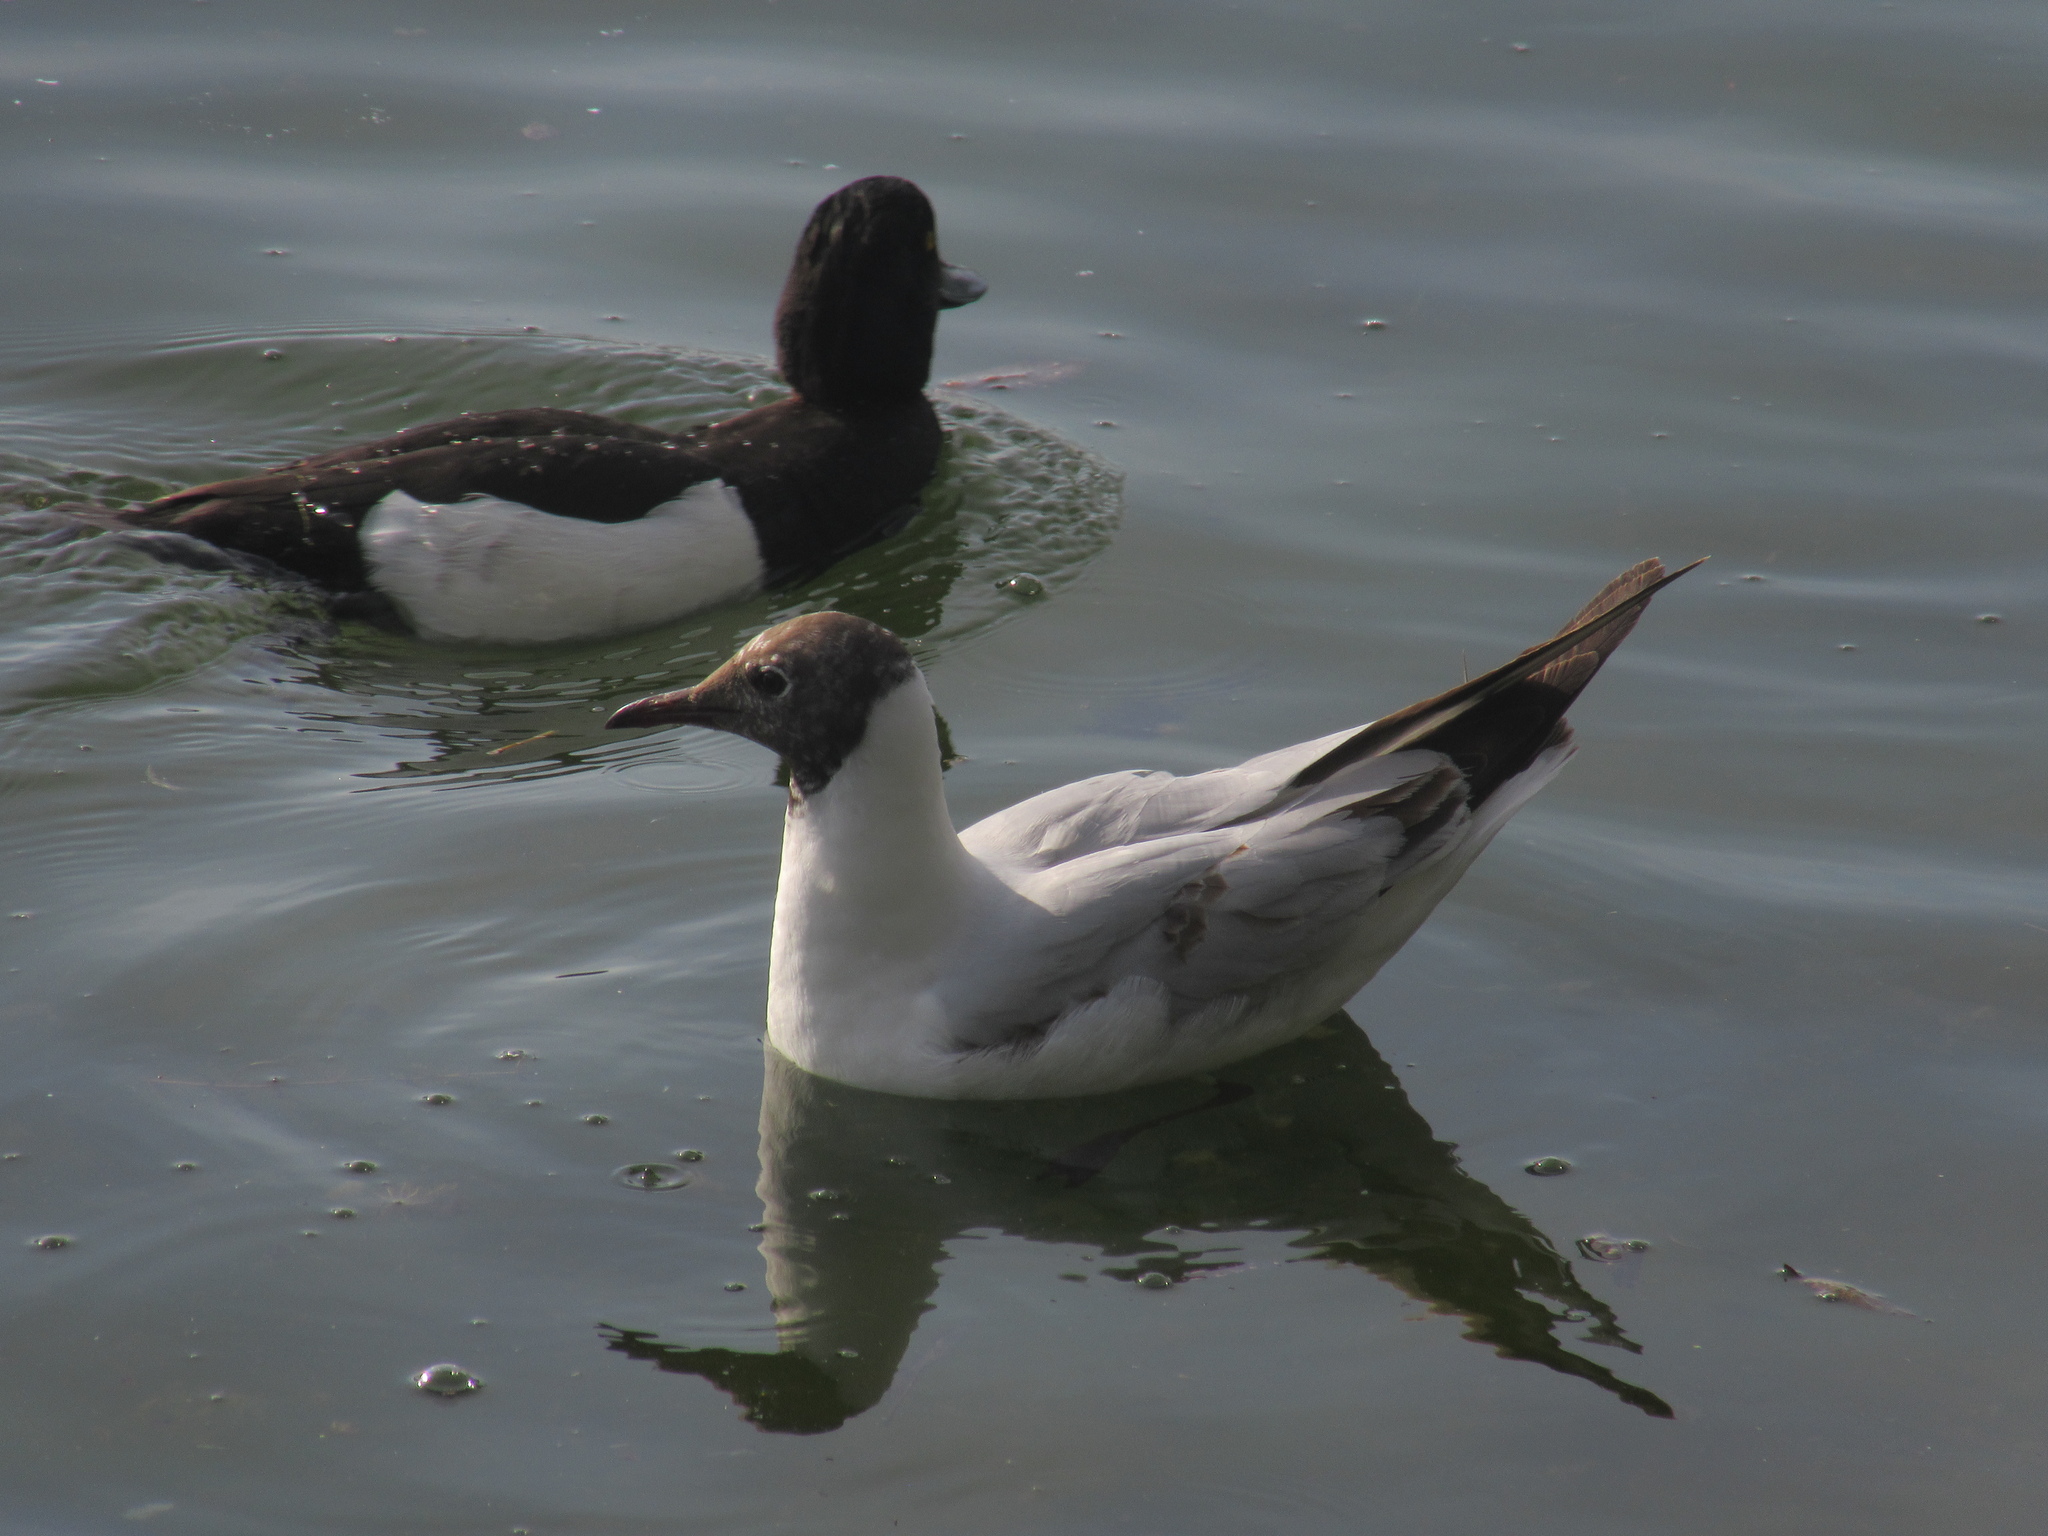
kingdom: Animalia
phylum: Chordata
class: Aves
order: Charadriiformes
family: Laridae
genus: Chroicocephalus
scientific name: Chroicocephalus ridibundus
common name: Black-headed gull
